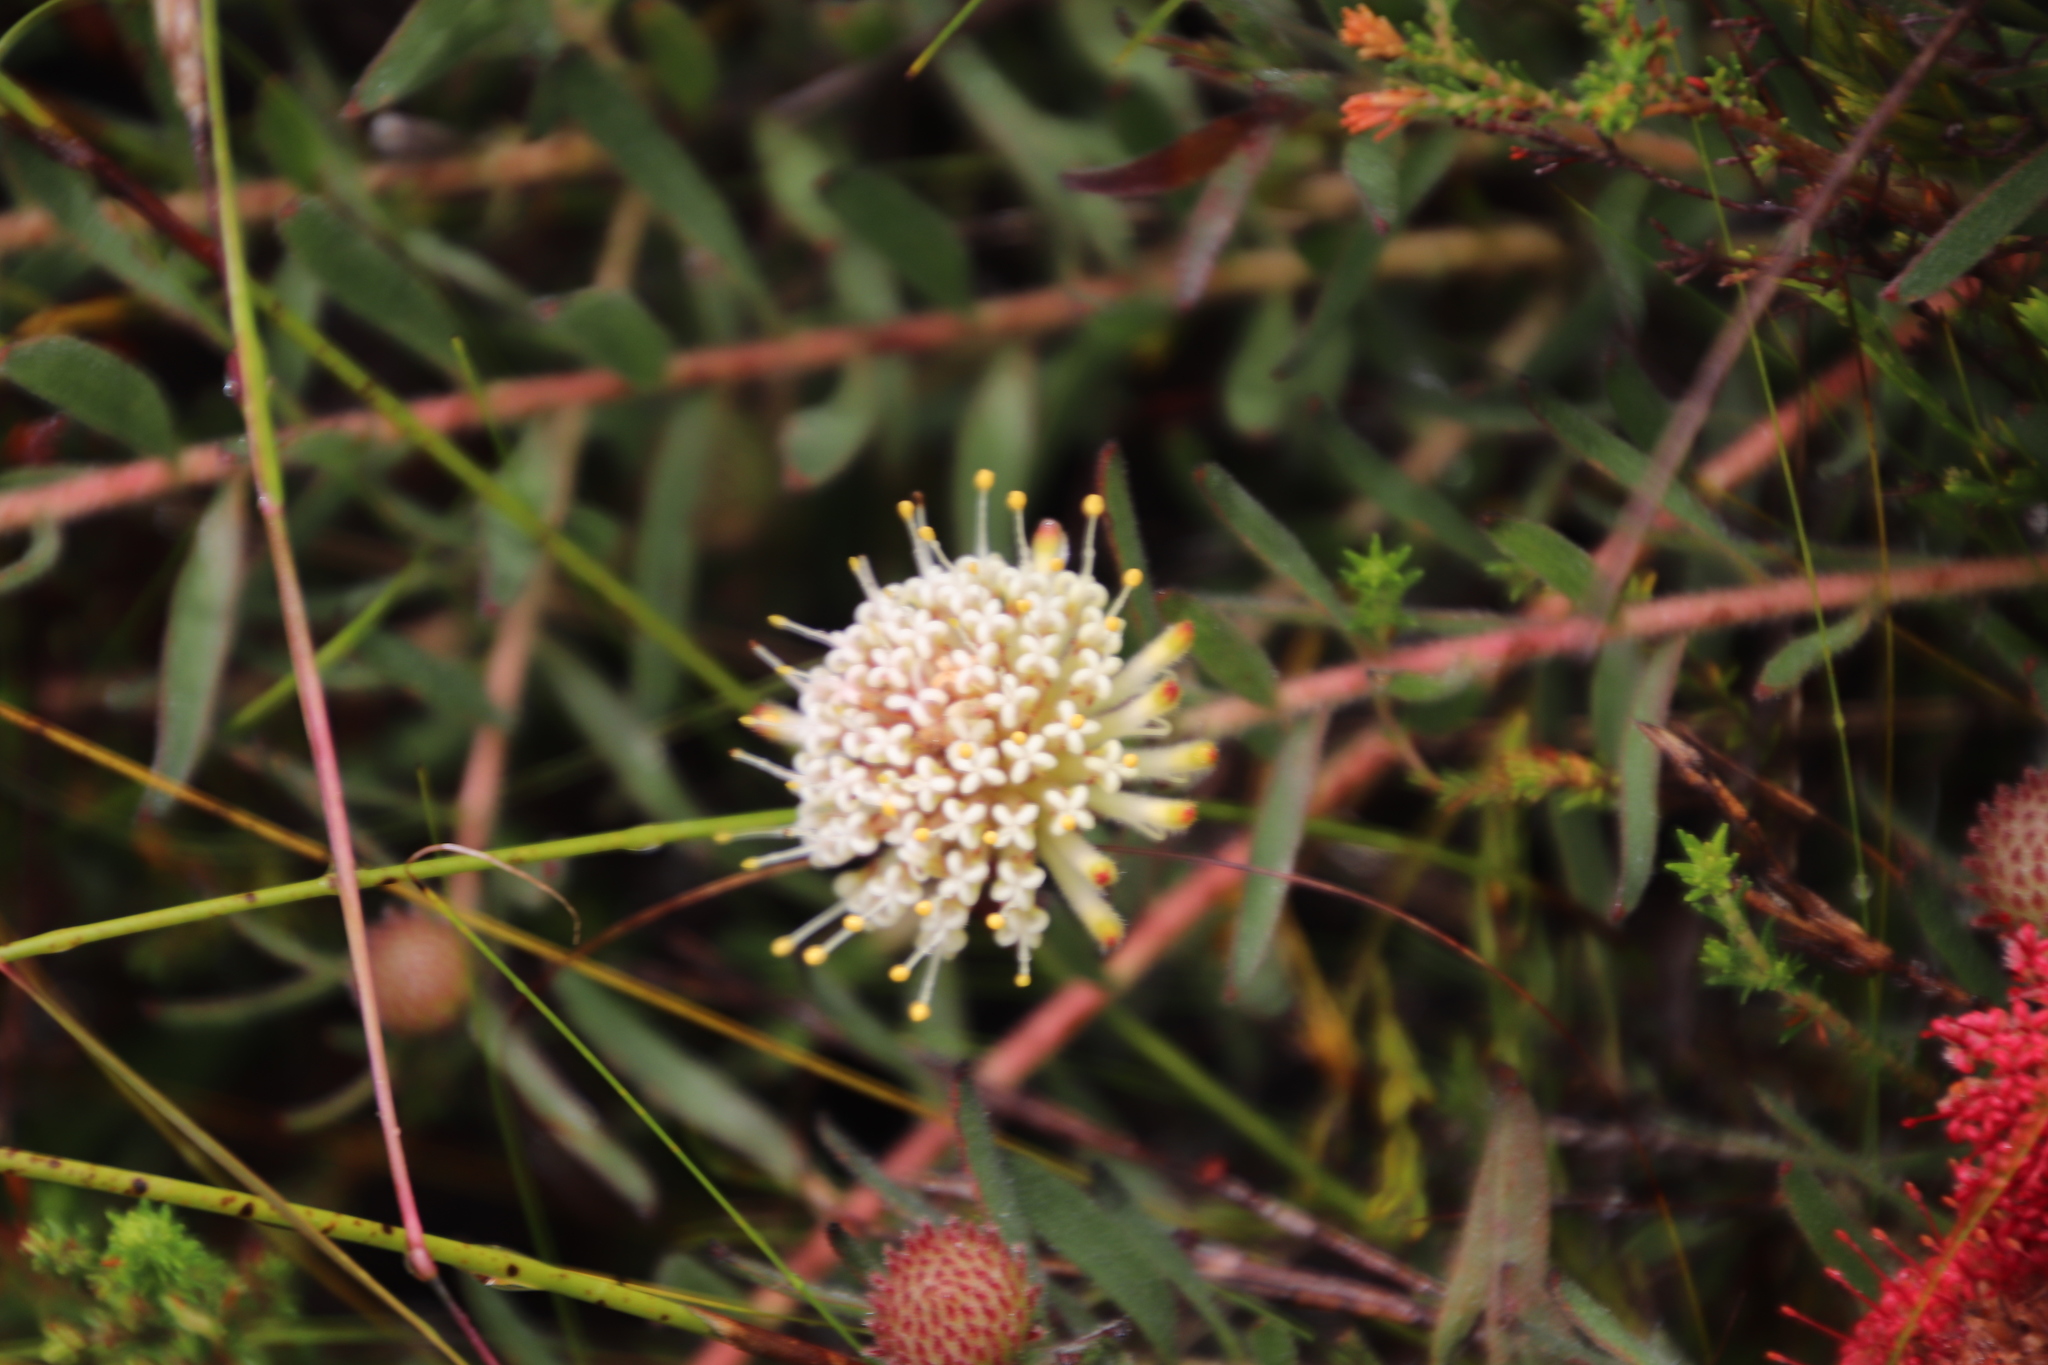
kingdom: Plantae
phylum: Tracheophyta
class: Magnoliopsida
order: Proteales
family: Proteaceae
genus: Leucospermum
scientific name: Leucospermum pedunculatum
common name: White-trailing pincushion
